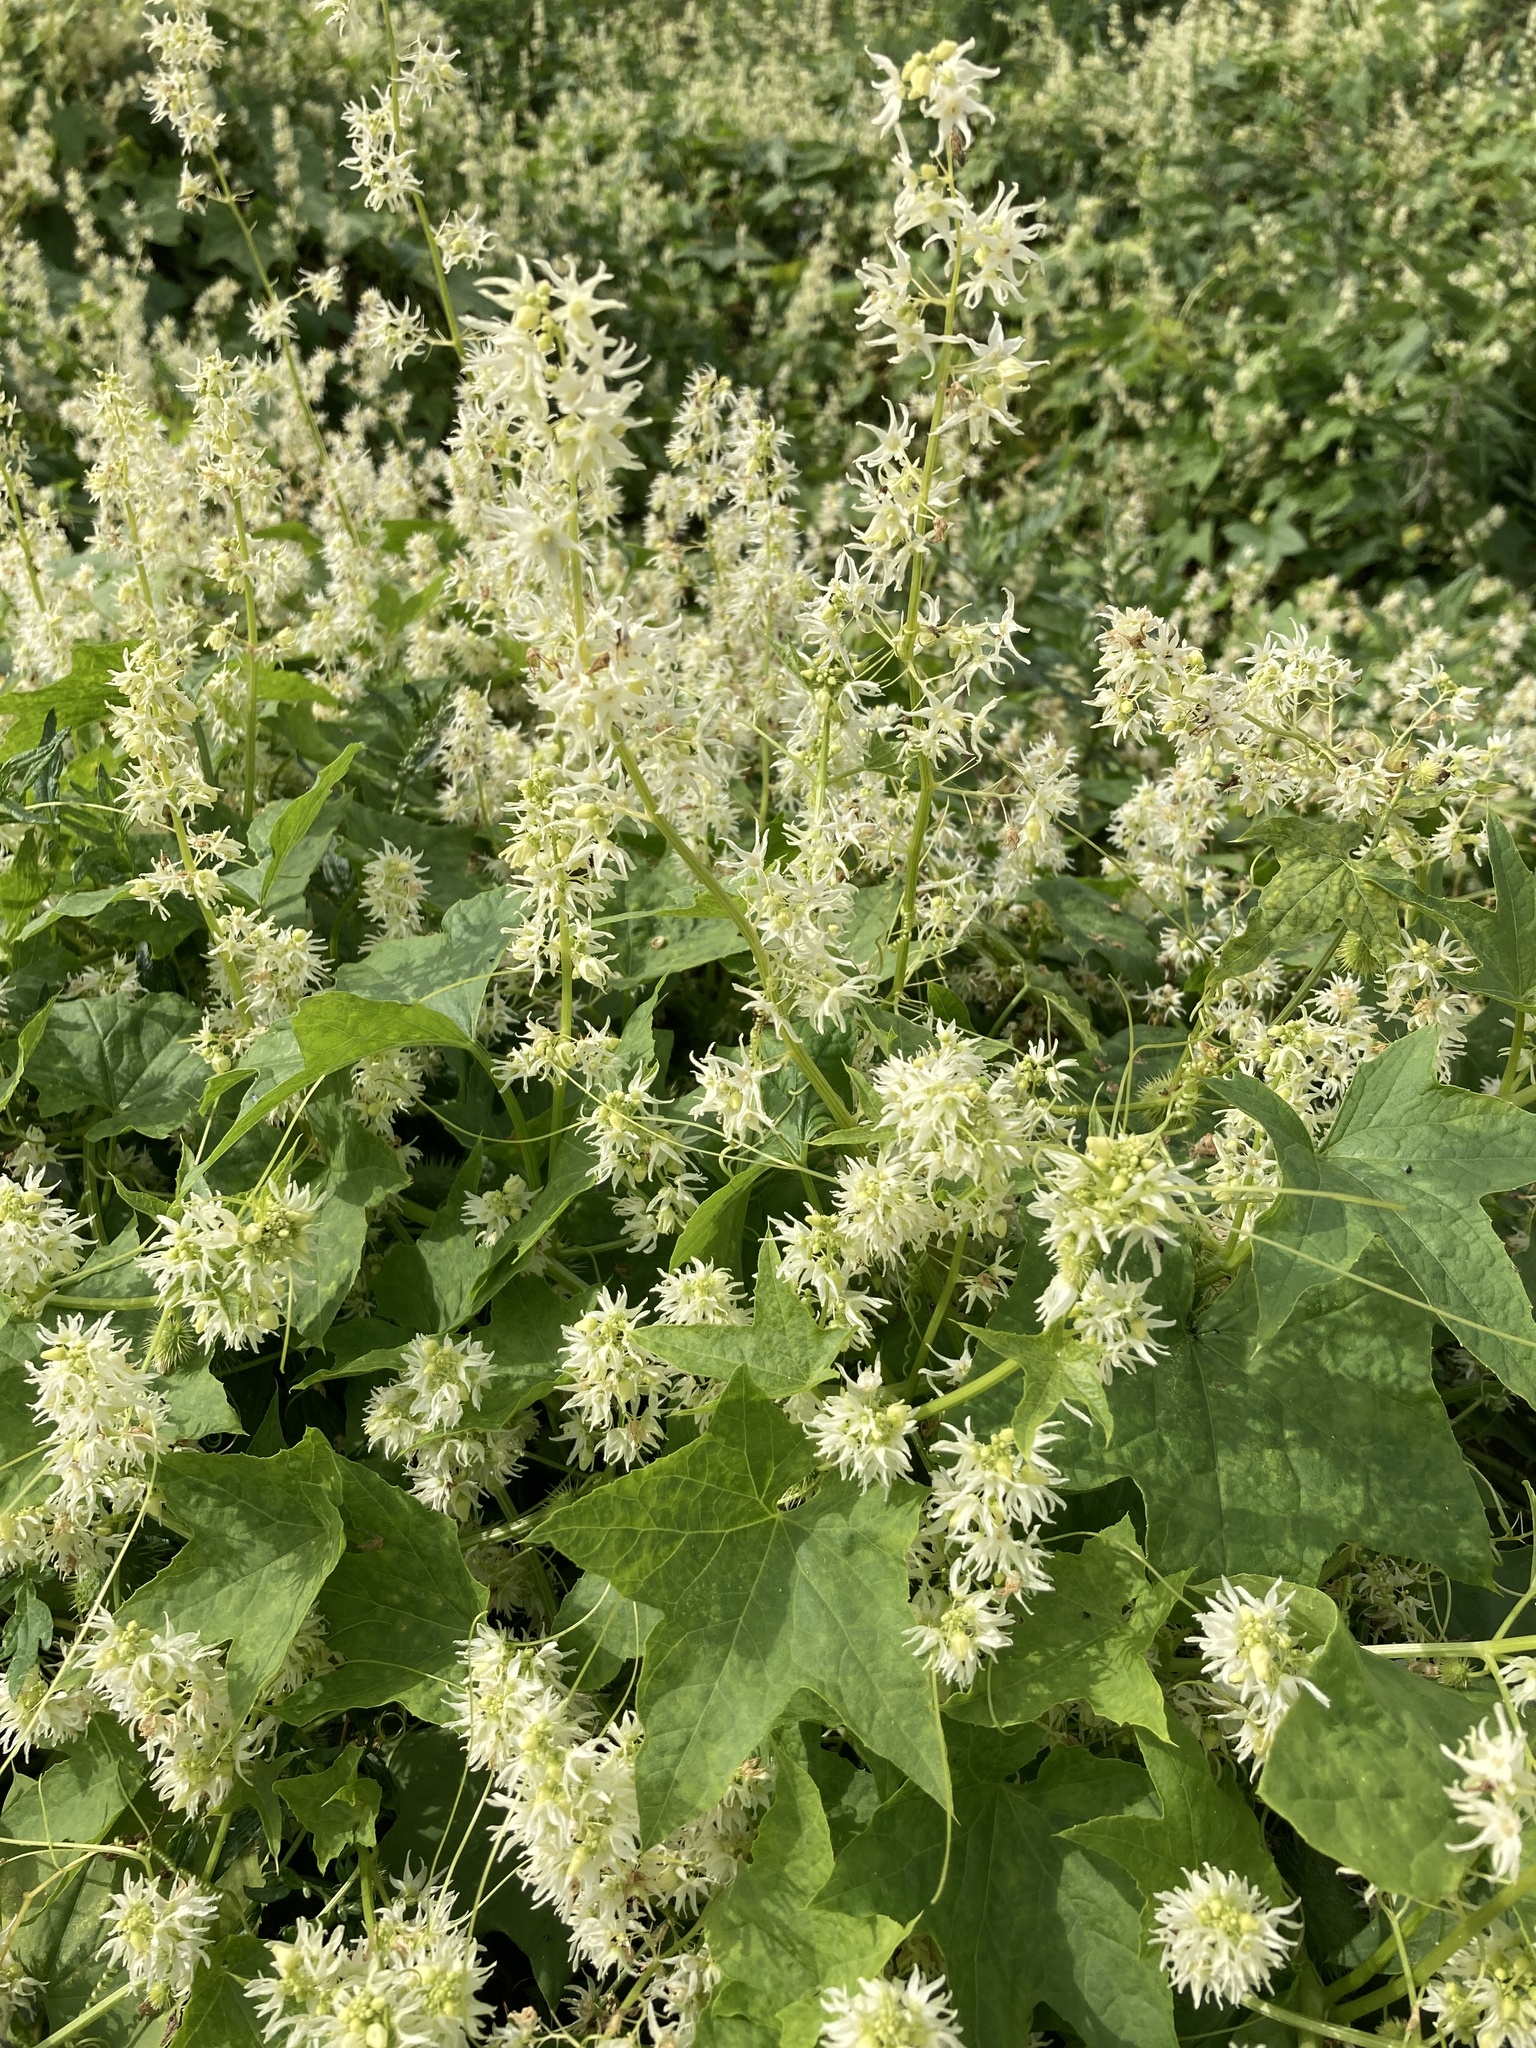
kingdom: Plantae
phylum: Tracheophyta
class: Magnoliopsida
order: Cucurbitales
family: Cucurbitaceae
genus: Echinocystis
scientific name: Echinocystis lobata
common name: Wild cucumber
